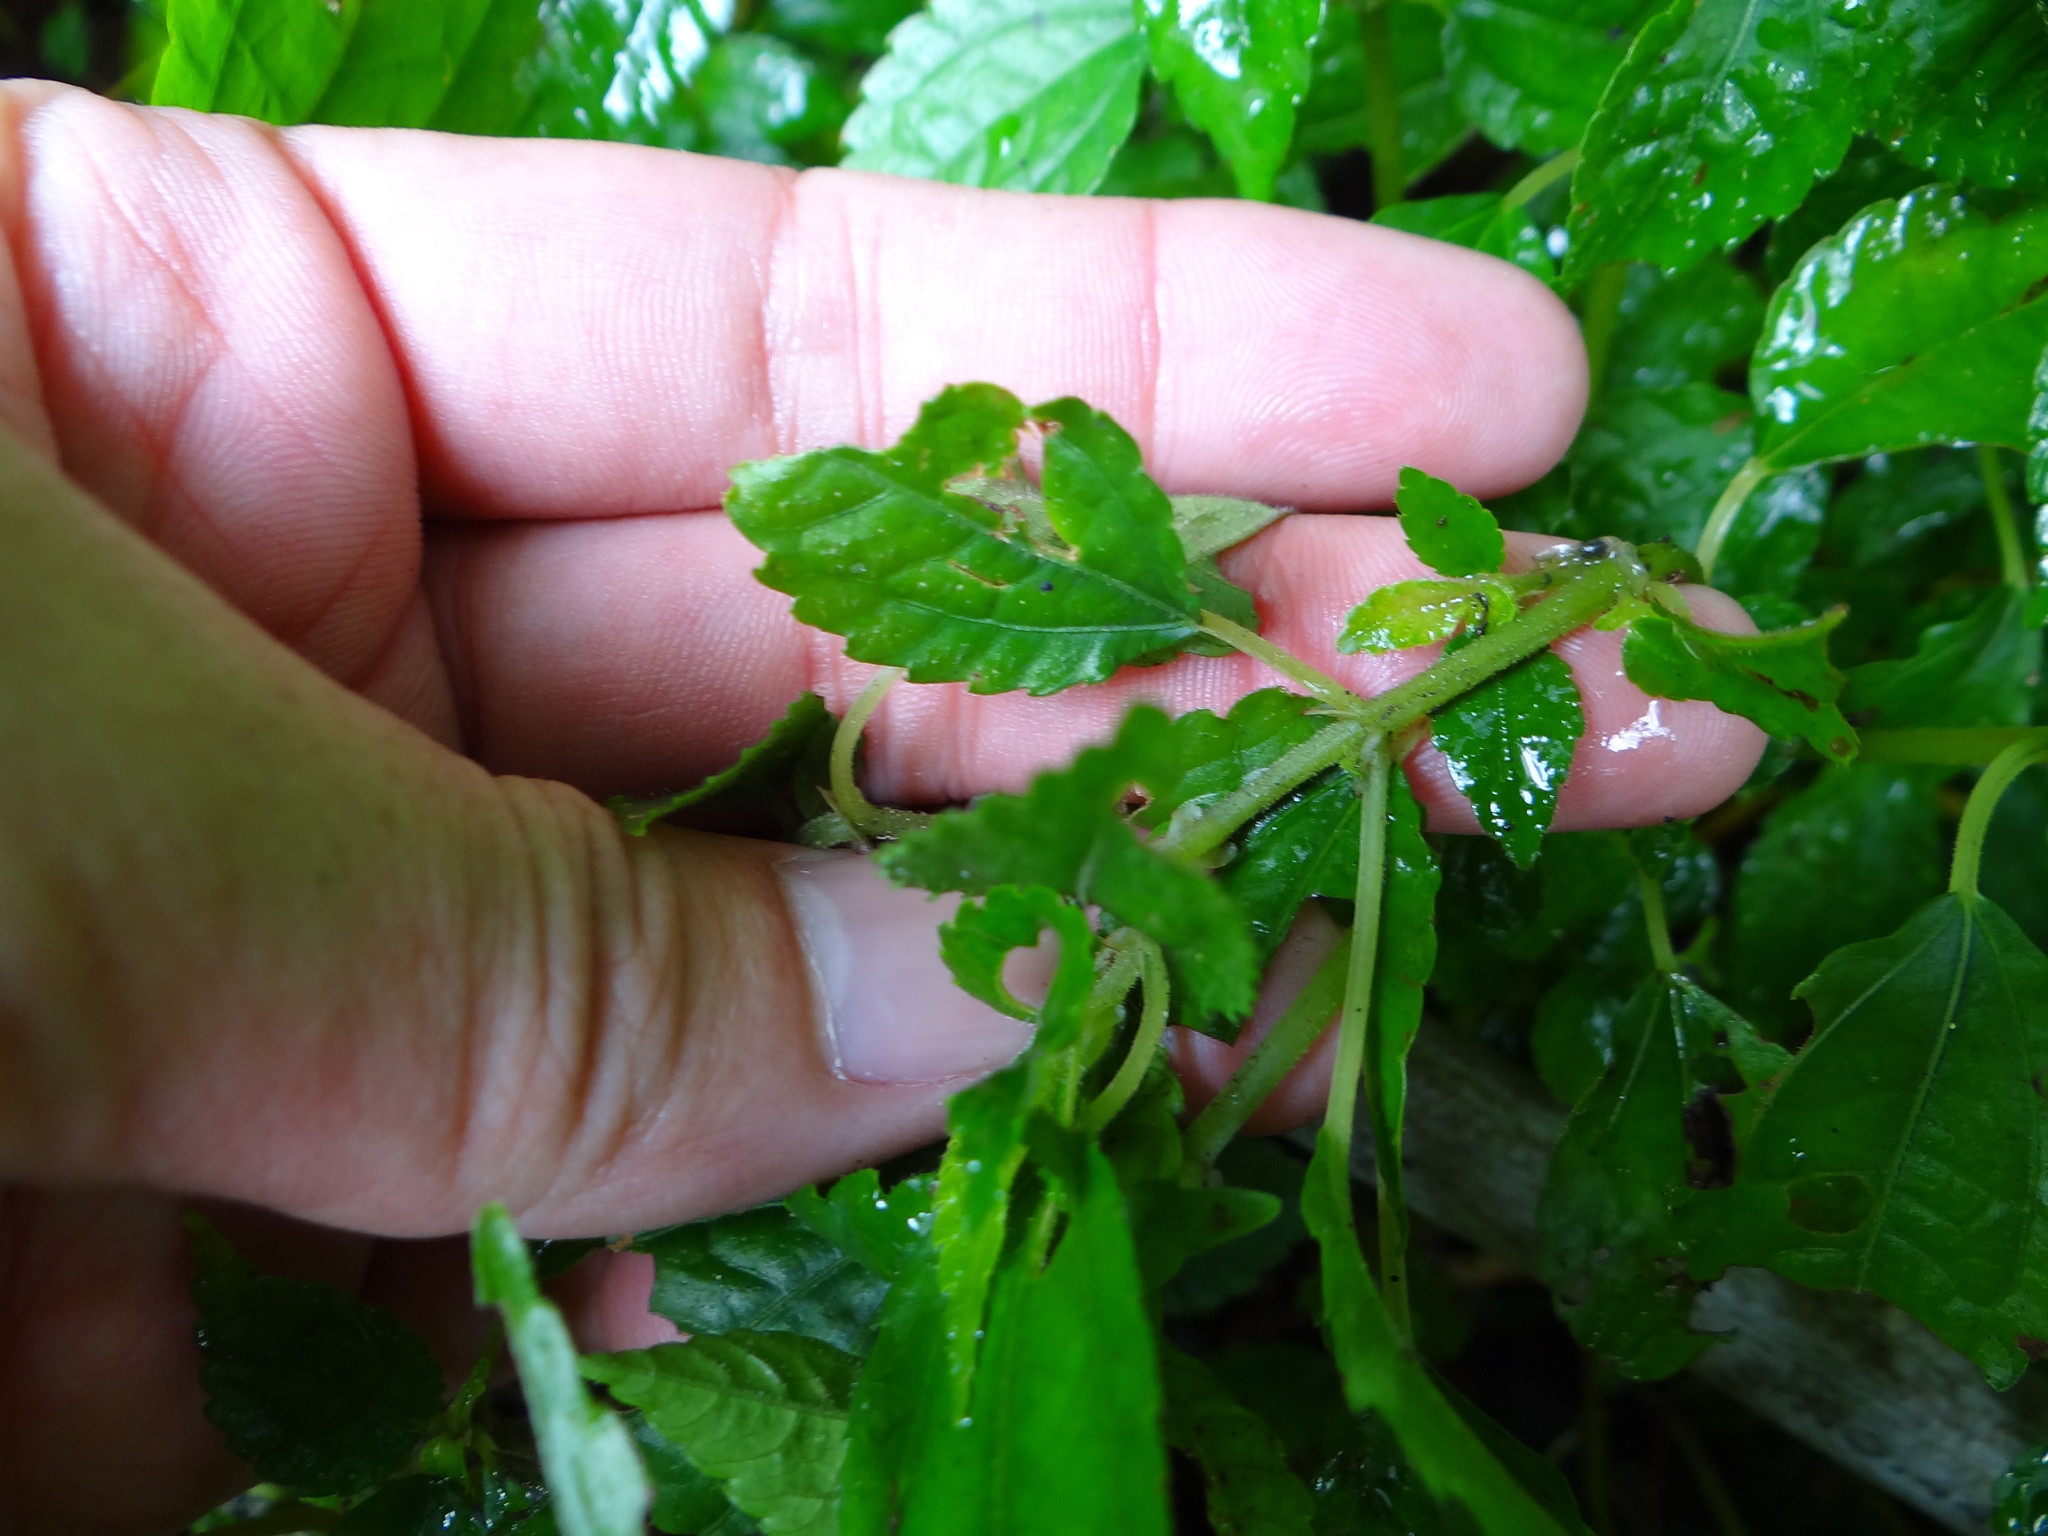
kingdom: Plantae
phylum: Tracheophyta
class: Magnoliopsida
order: Rosales
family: Urticaceae
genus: Pilea
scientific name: Pilea brevicornuta
